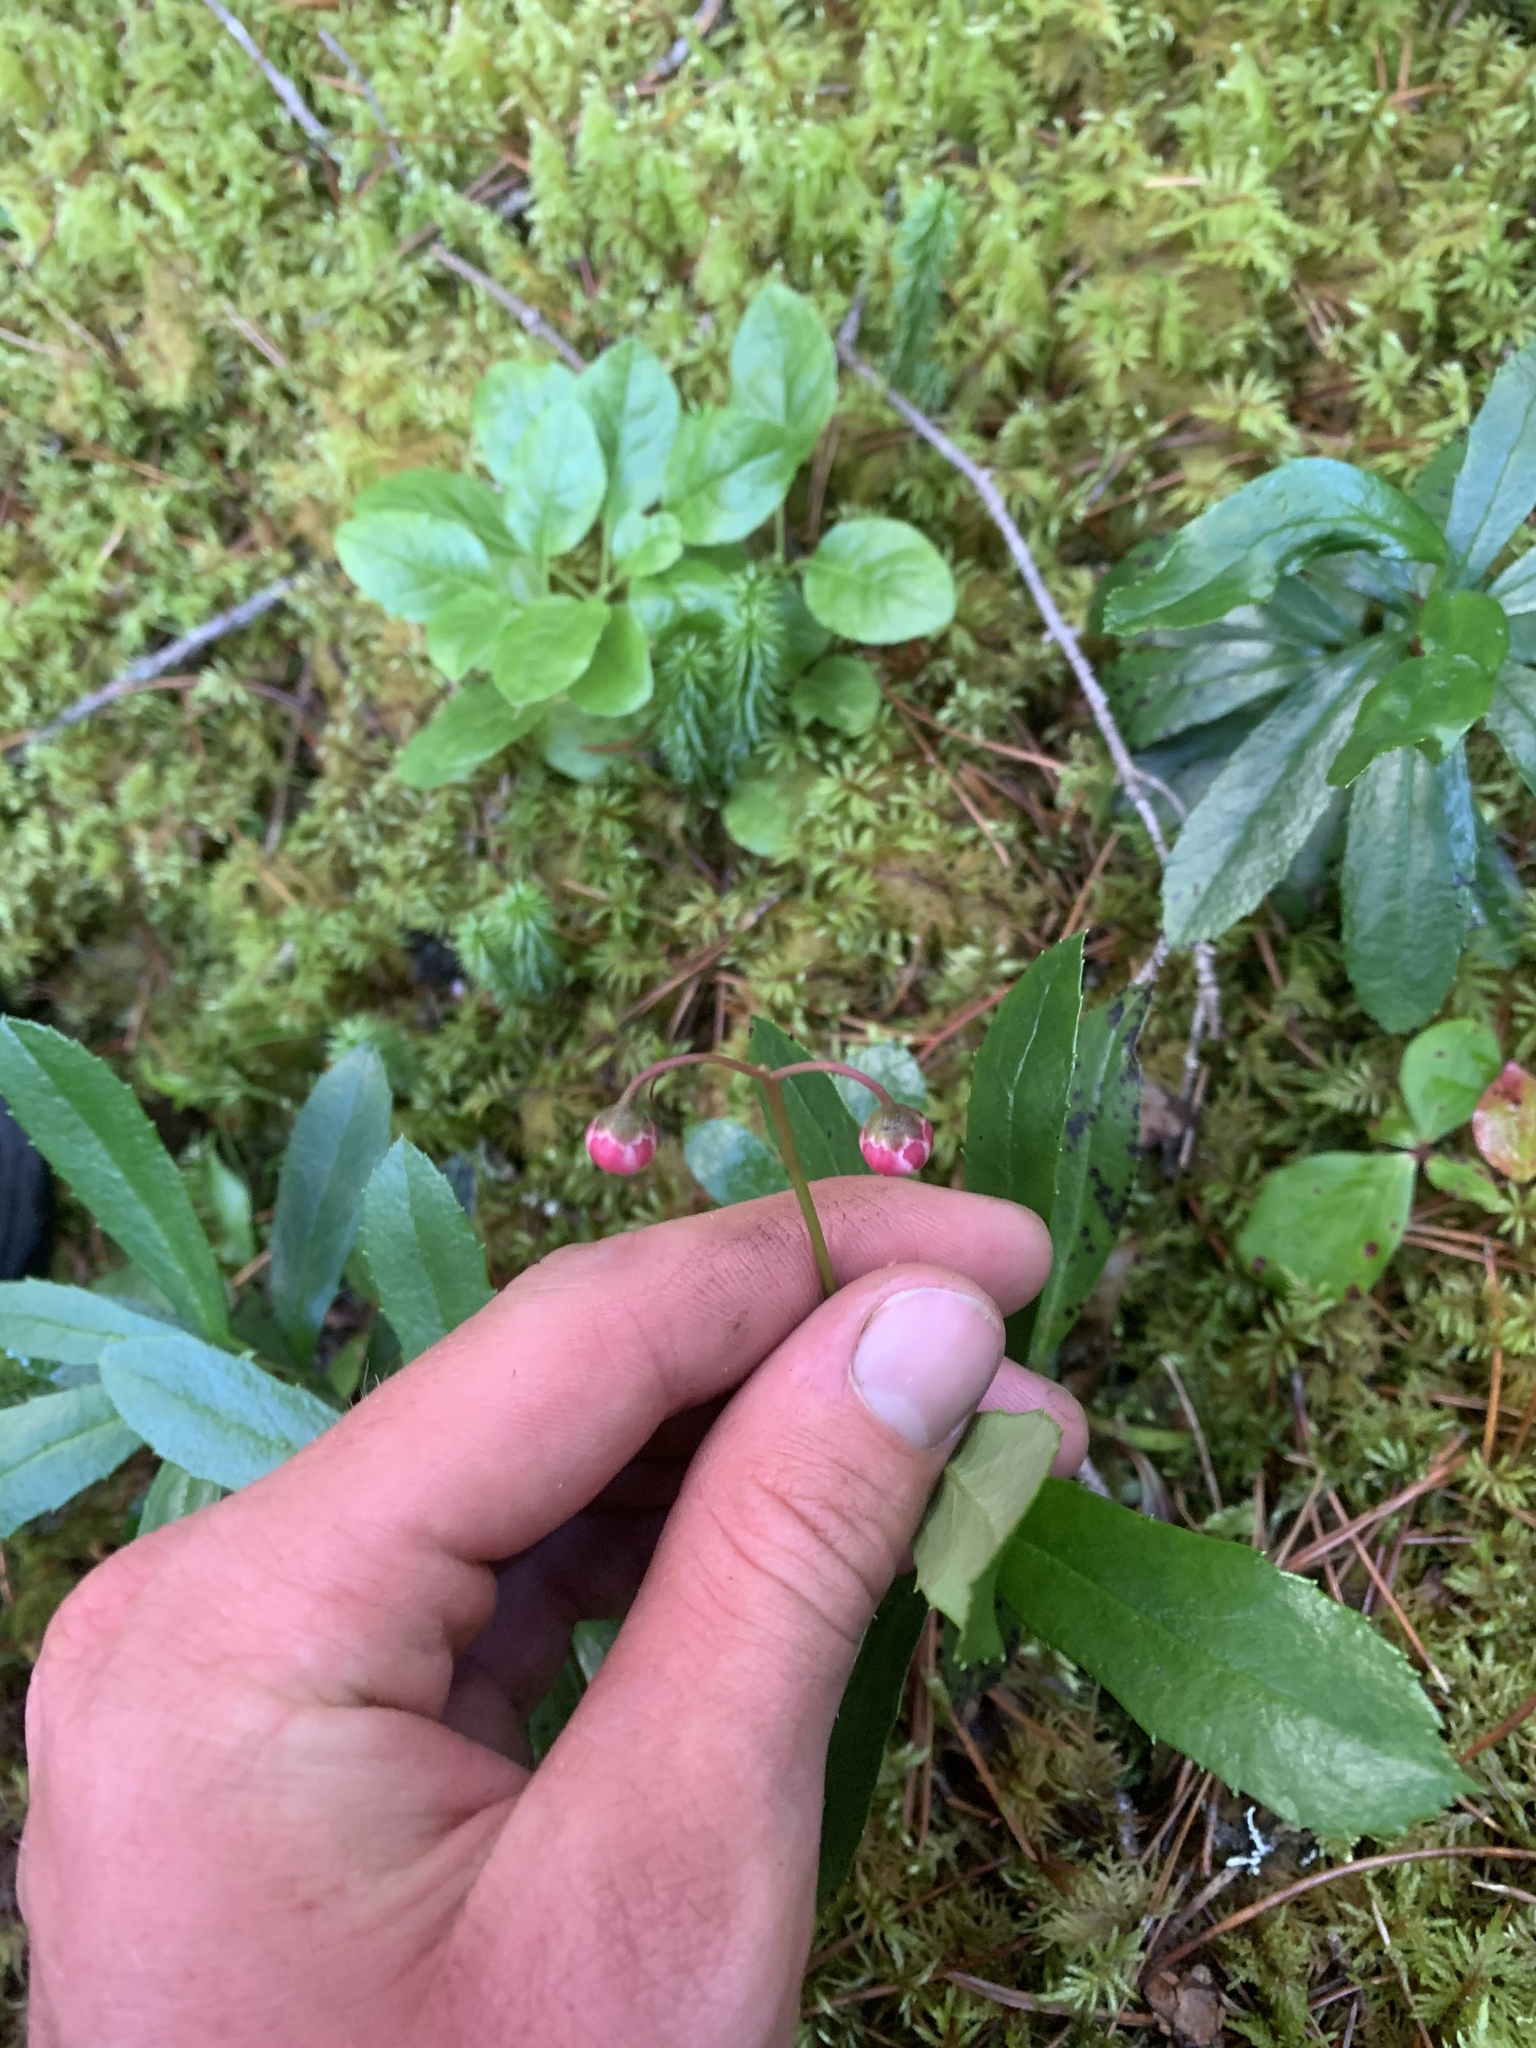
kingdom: Plantae
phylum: Tracheophyta
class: Magnoliopsida
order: Ericales
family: Ericaceae
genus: Chimaphila
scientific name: Chimaphila umbellata
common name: Pipsissewa
